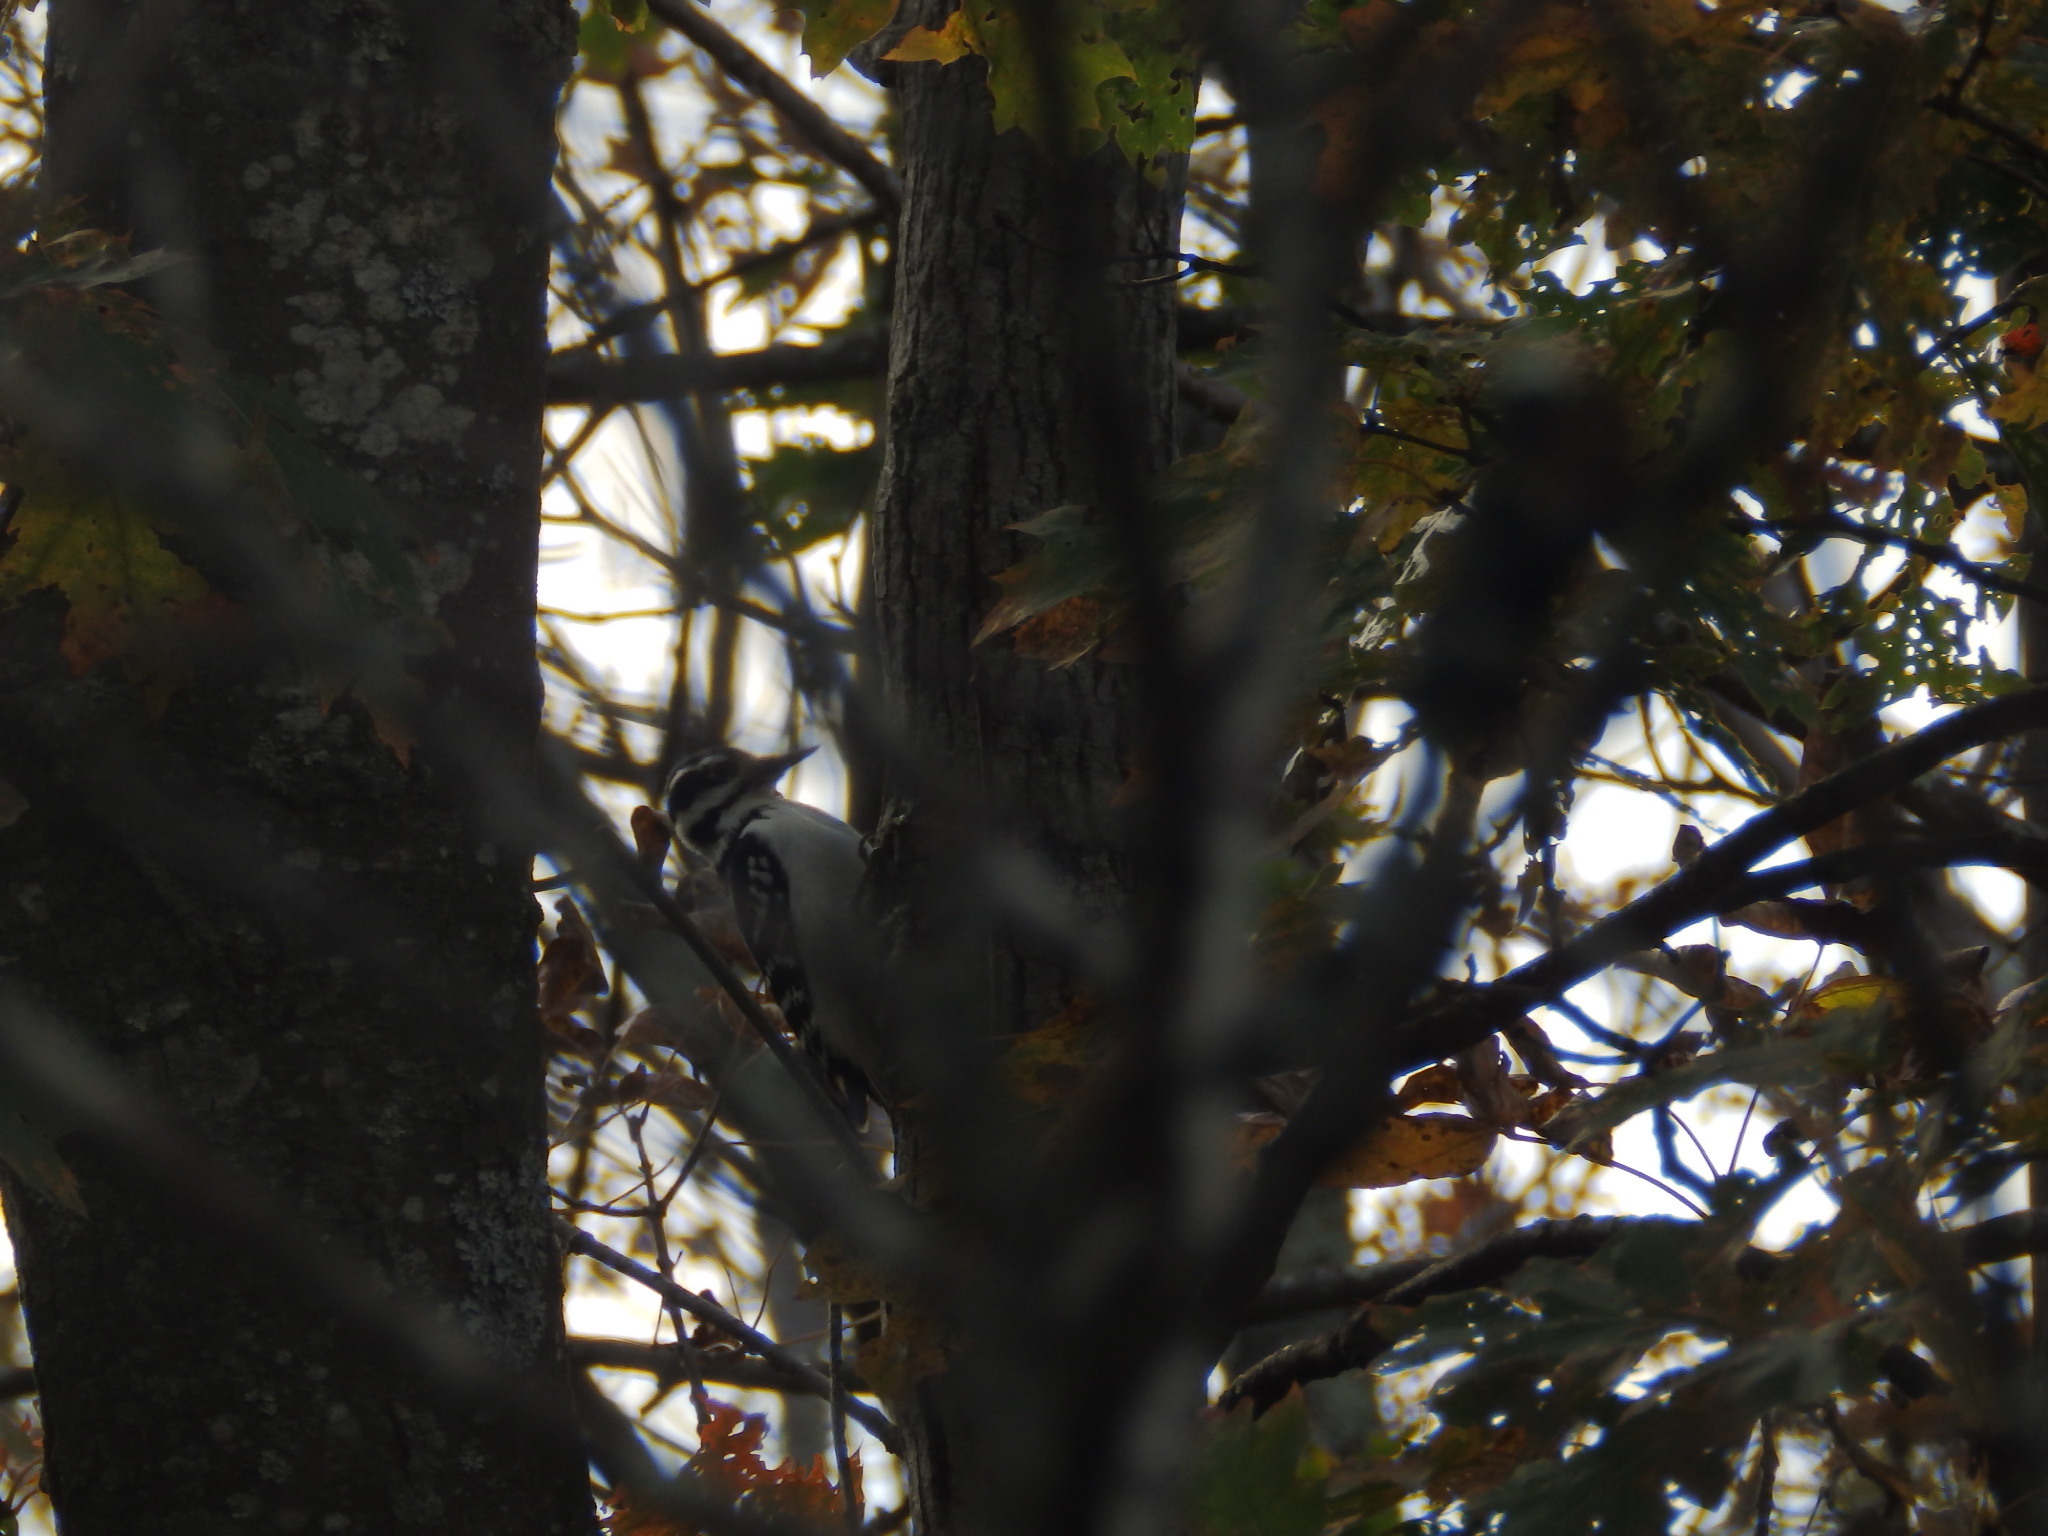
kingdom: Animalia
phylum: Chordata
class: Aves
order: Piciformes
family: Picidae
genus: Leuconotopicus
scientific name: Leuconotopicus villosus
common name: Hairy woodpecker
